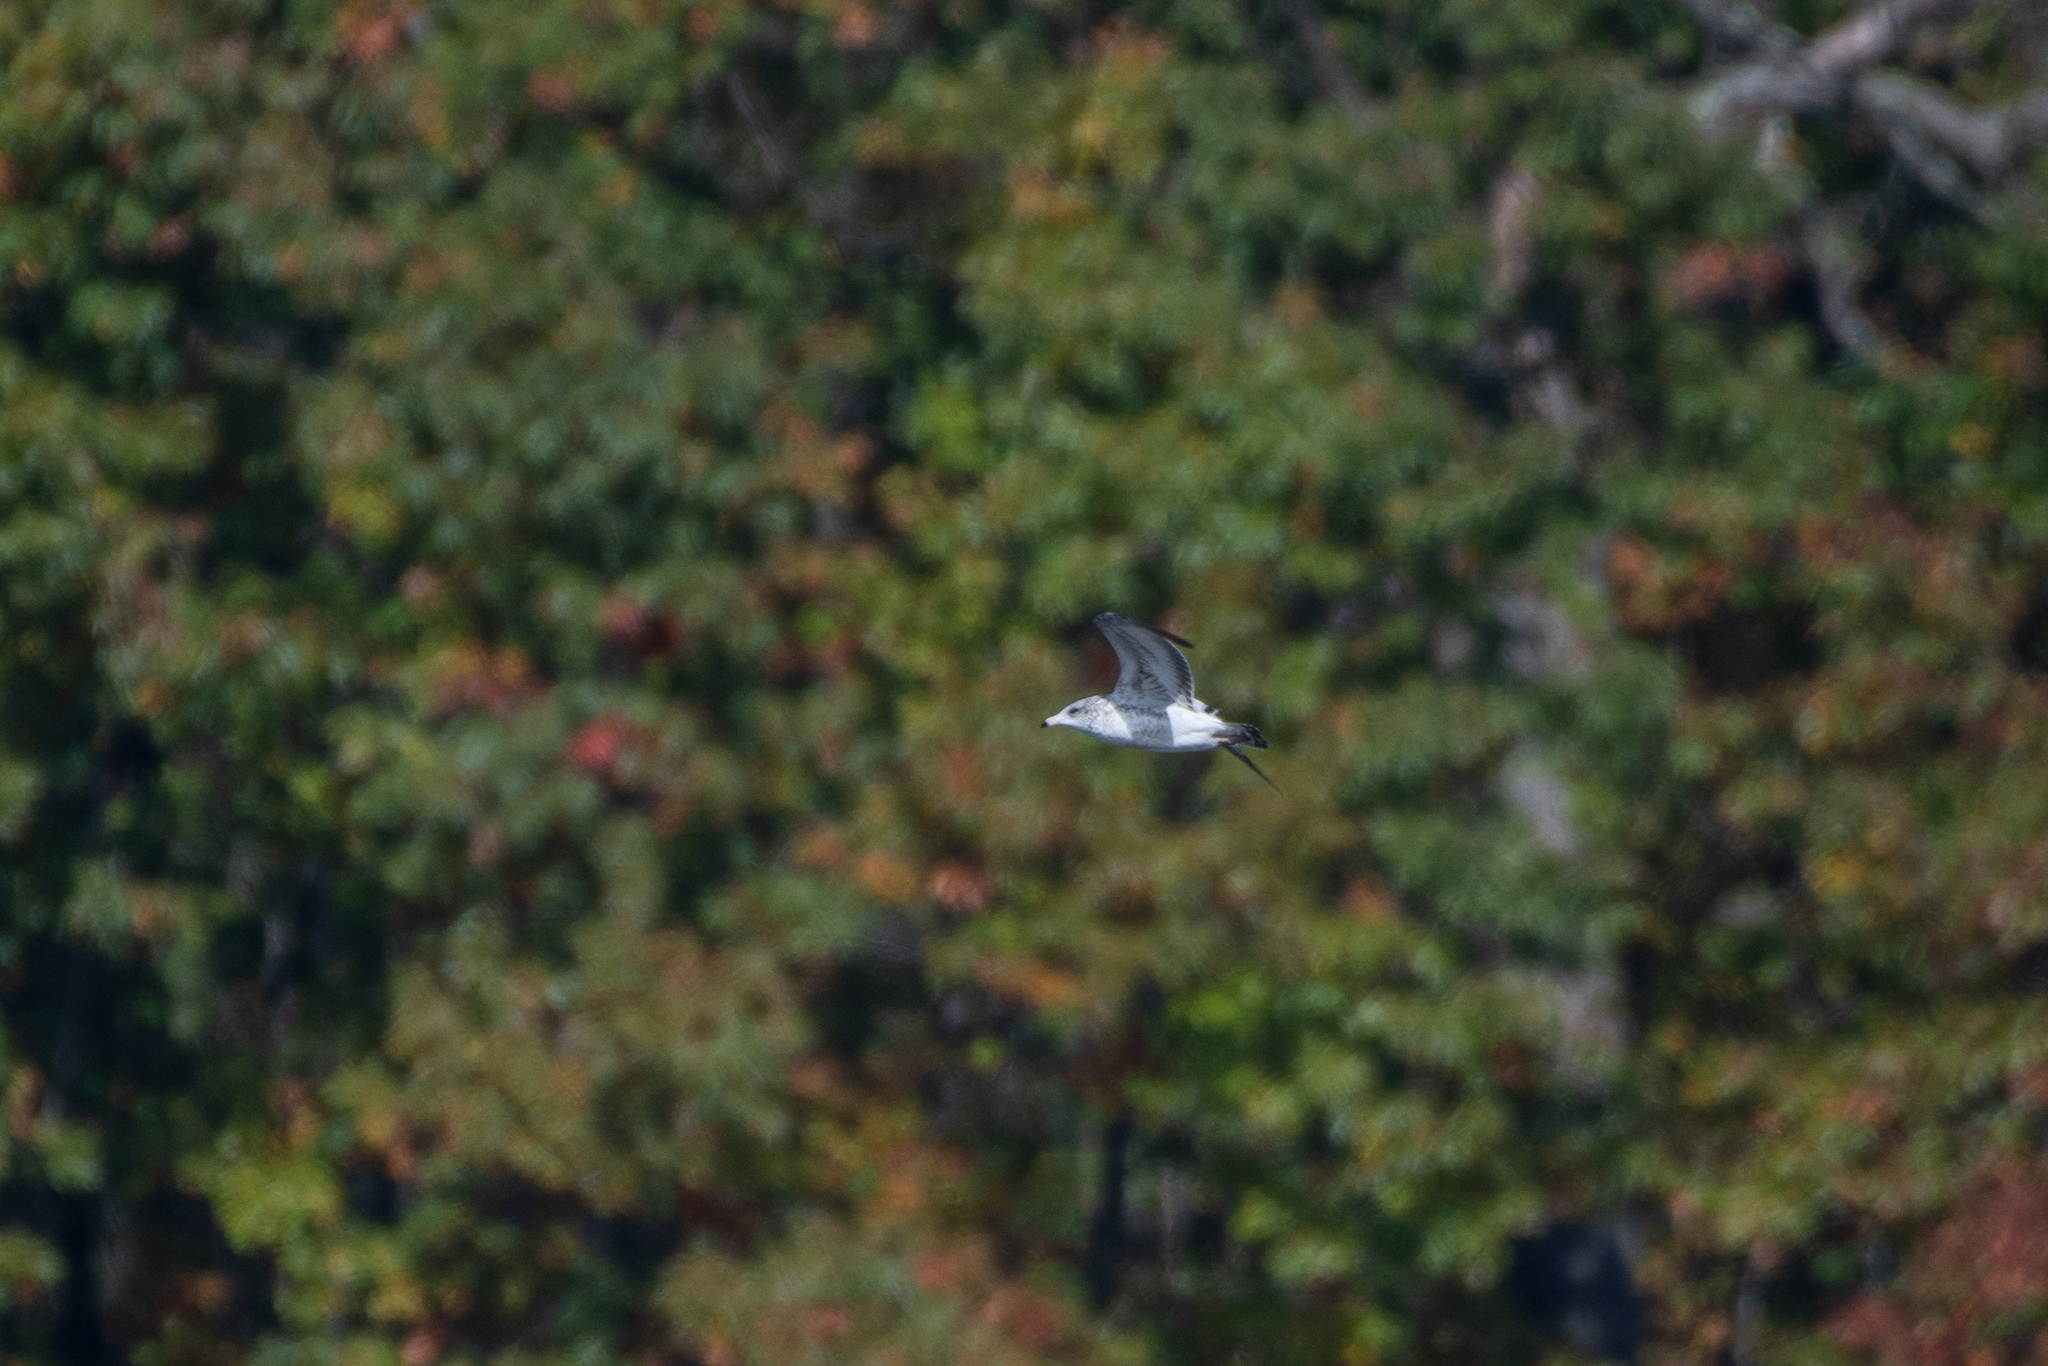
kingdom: Animalia
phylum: Chordata
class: Aves
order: Charadriiformes
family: Laridae
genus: Larus
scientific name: Larus delawarensis
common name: Ring-billed gull
